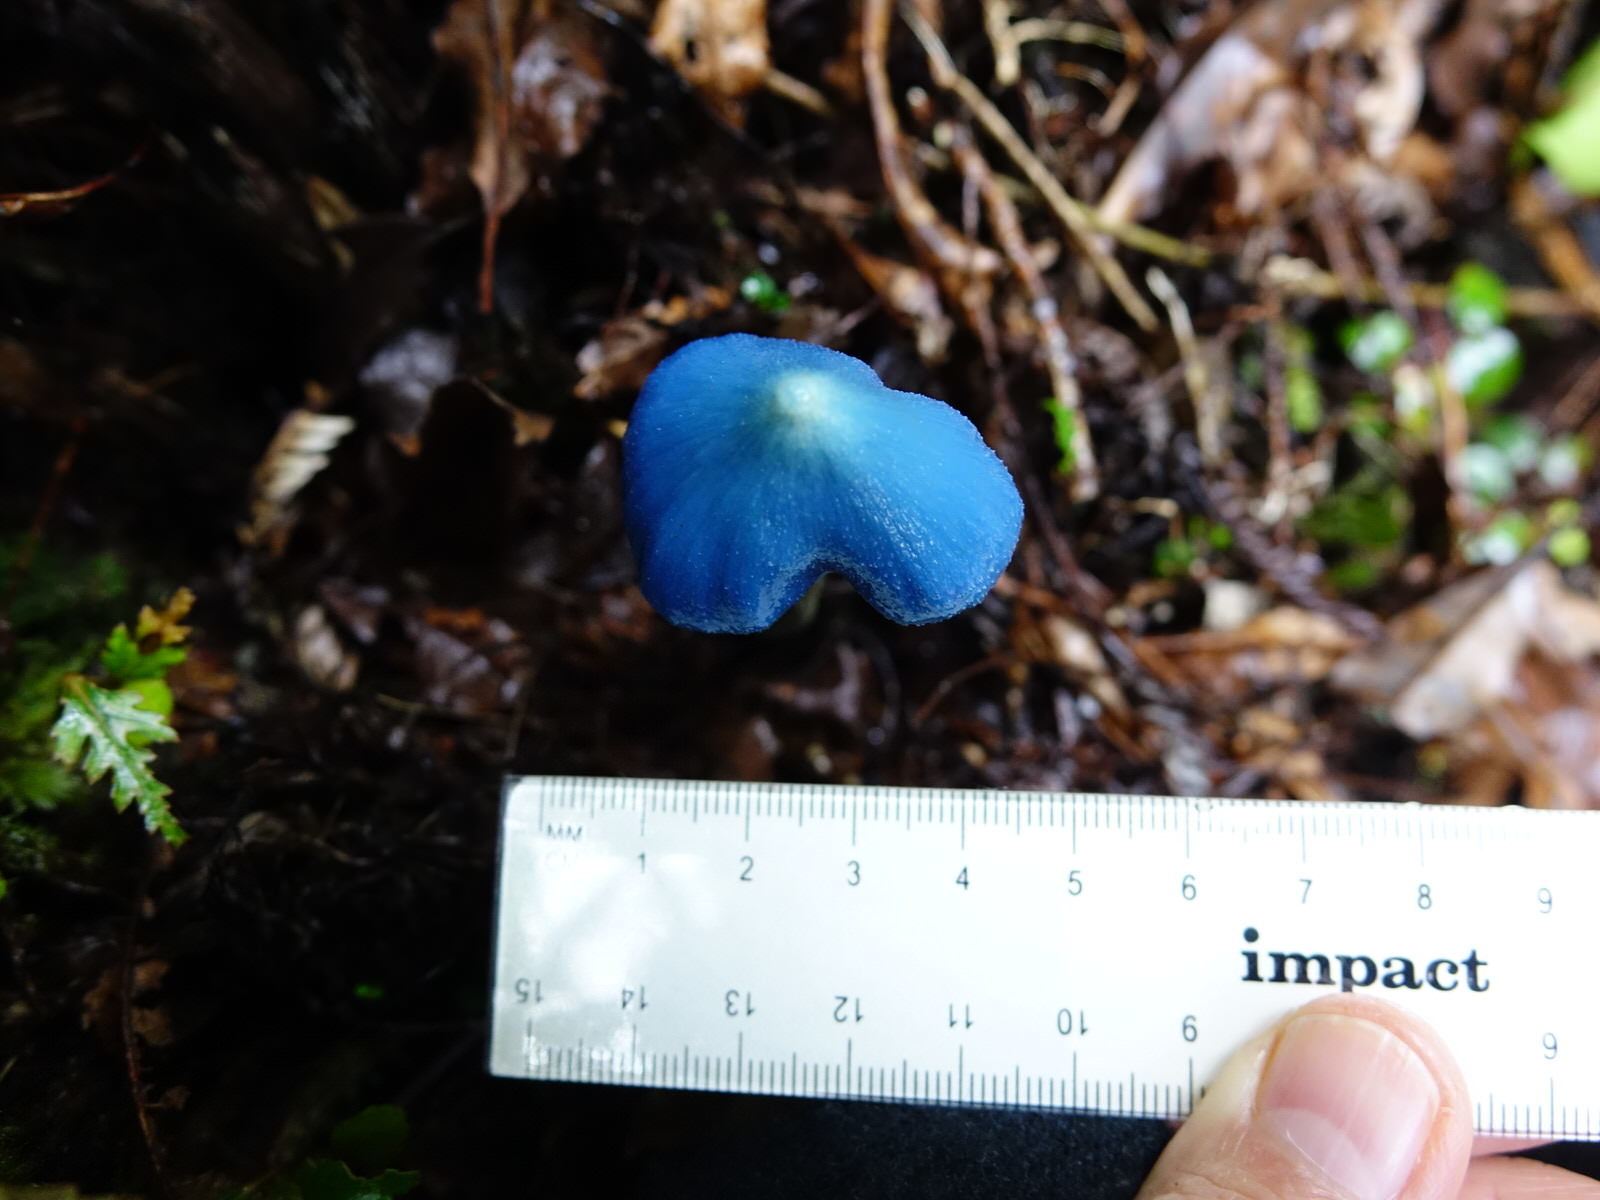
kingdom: Fungi
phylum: Basidiomycota
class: Agaricomycetes
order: Agaricales
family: Entolomataceae
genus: Entoloma
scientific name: Entoloma hochstetteri
